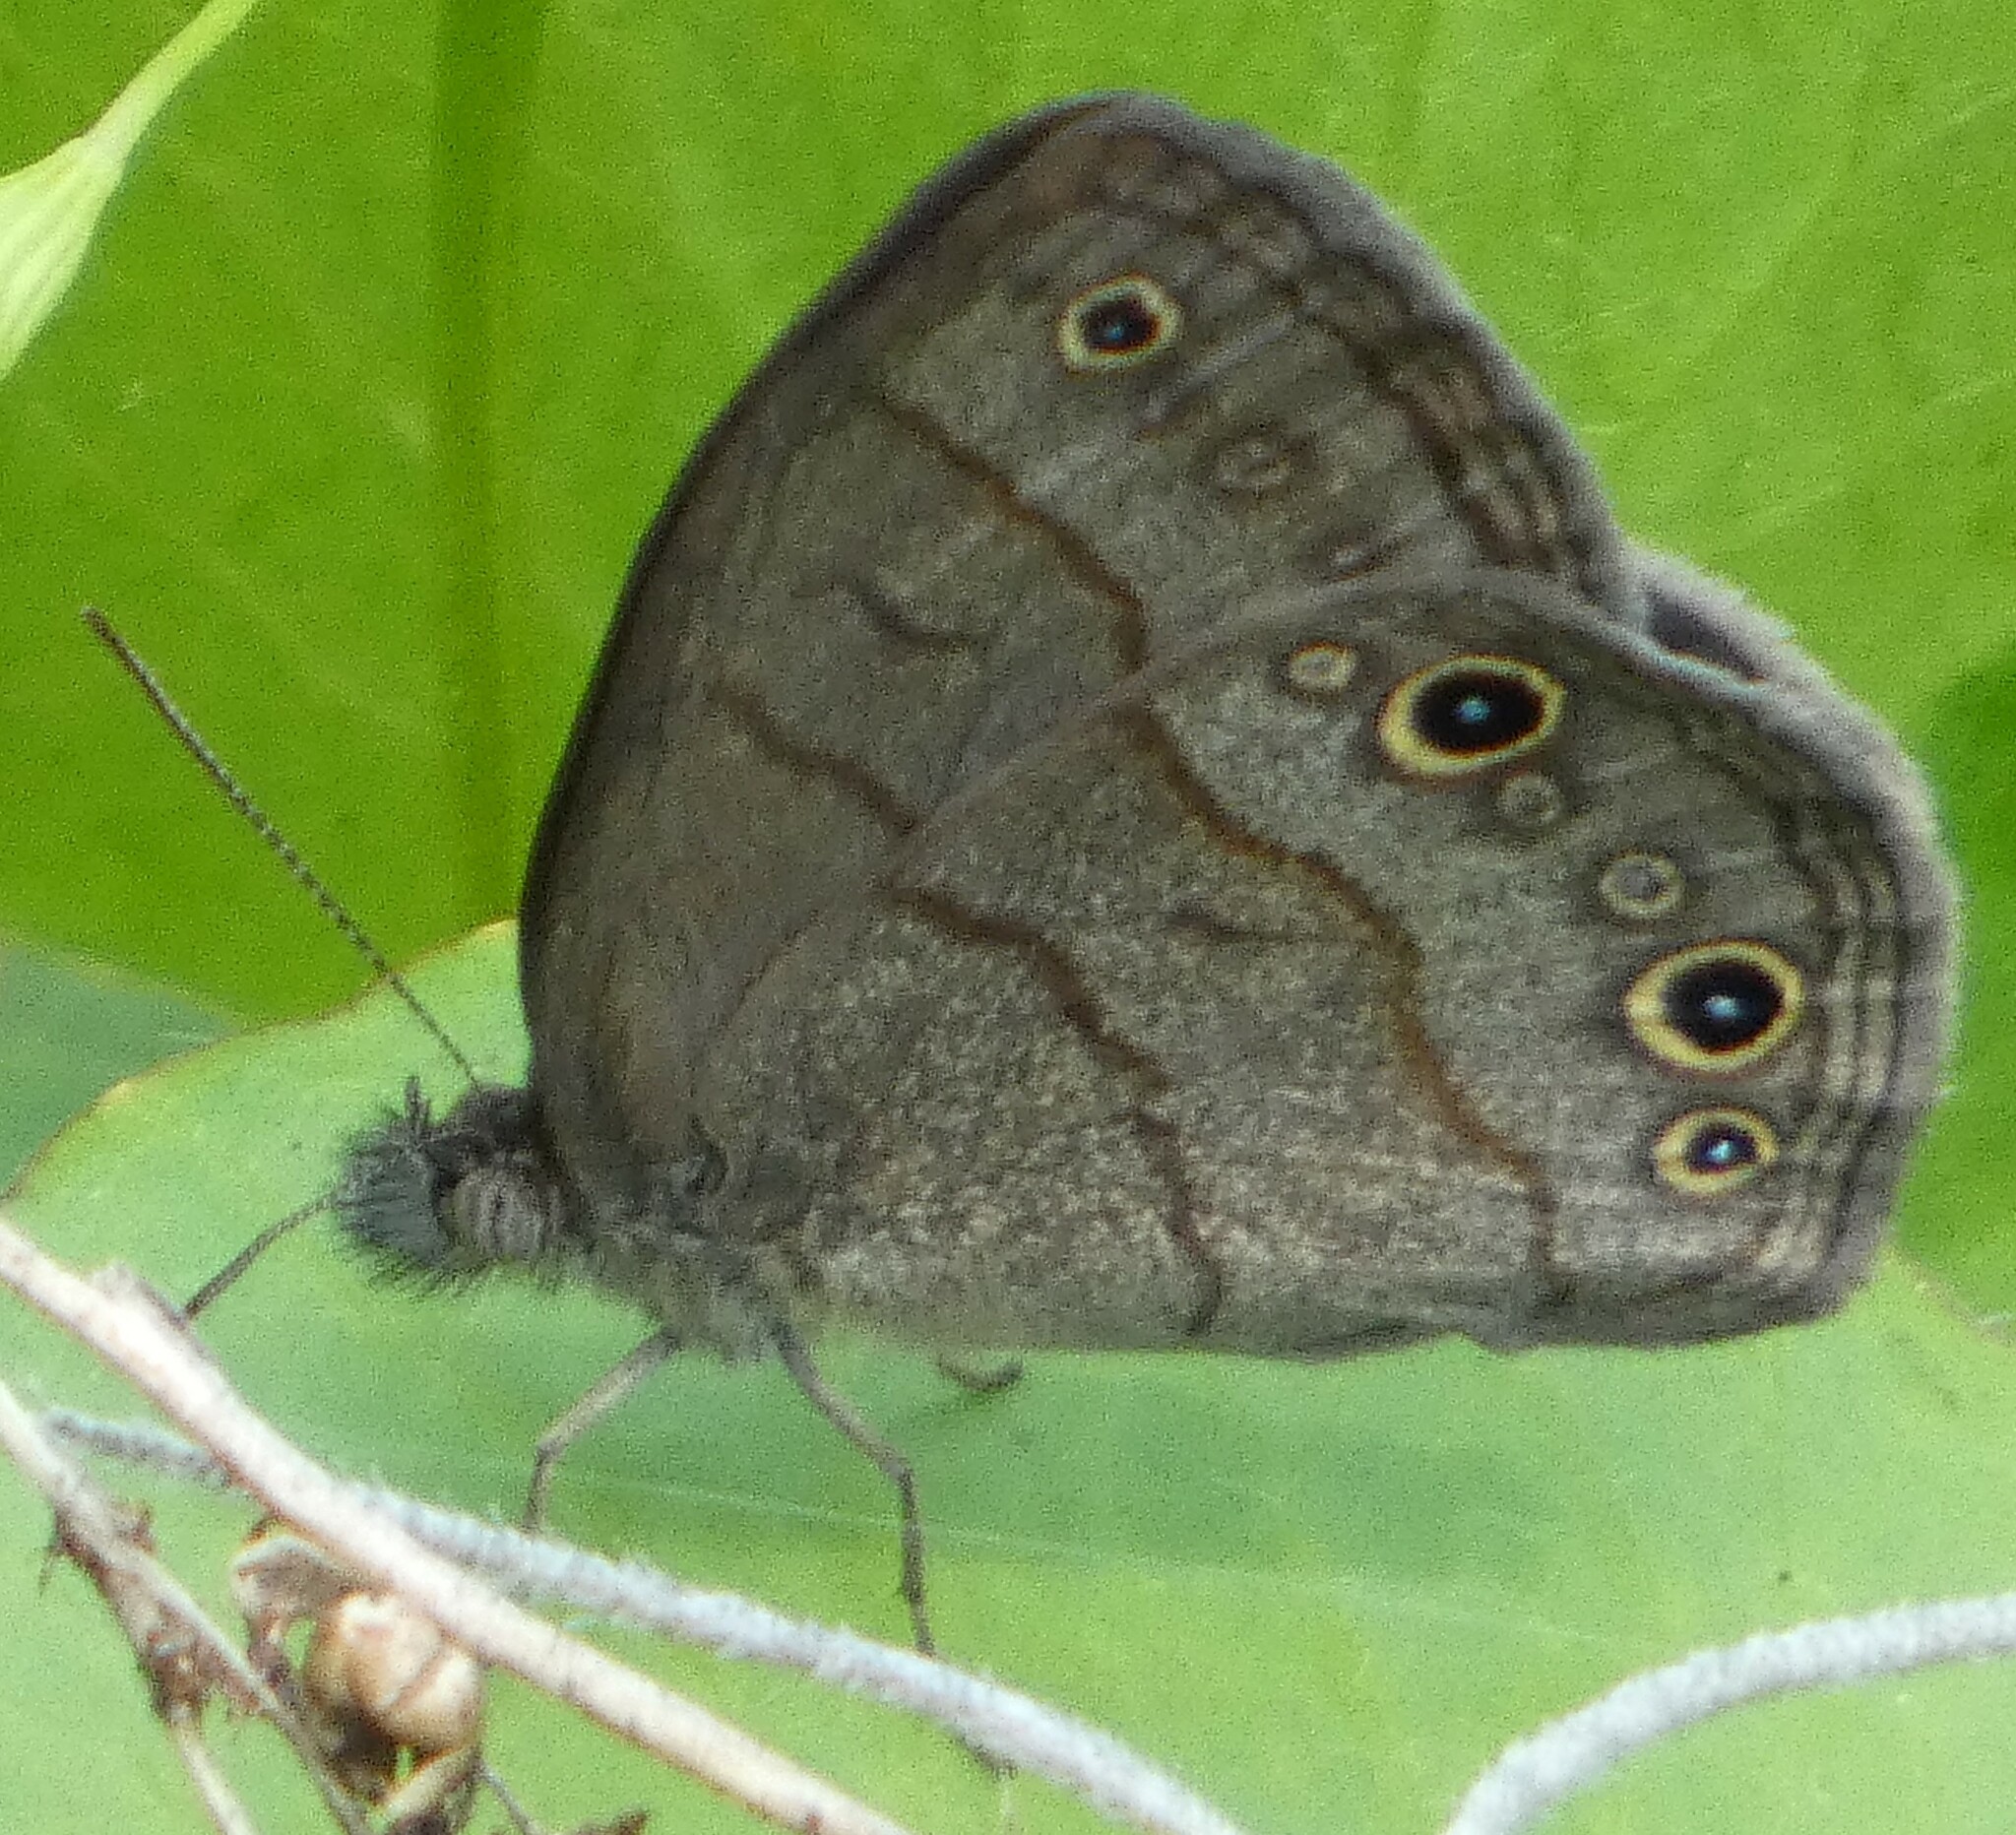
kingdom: Animalia
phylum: Arthropoda
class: Insecta
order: Lepidoptera
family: Nymphalidae
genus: Hermeuptychia
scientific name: Hermeuptychia hermes
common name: Hermes satyr
